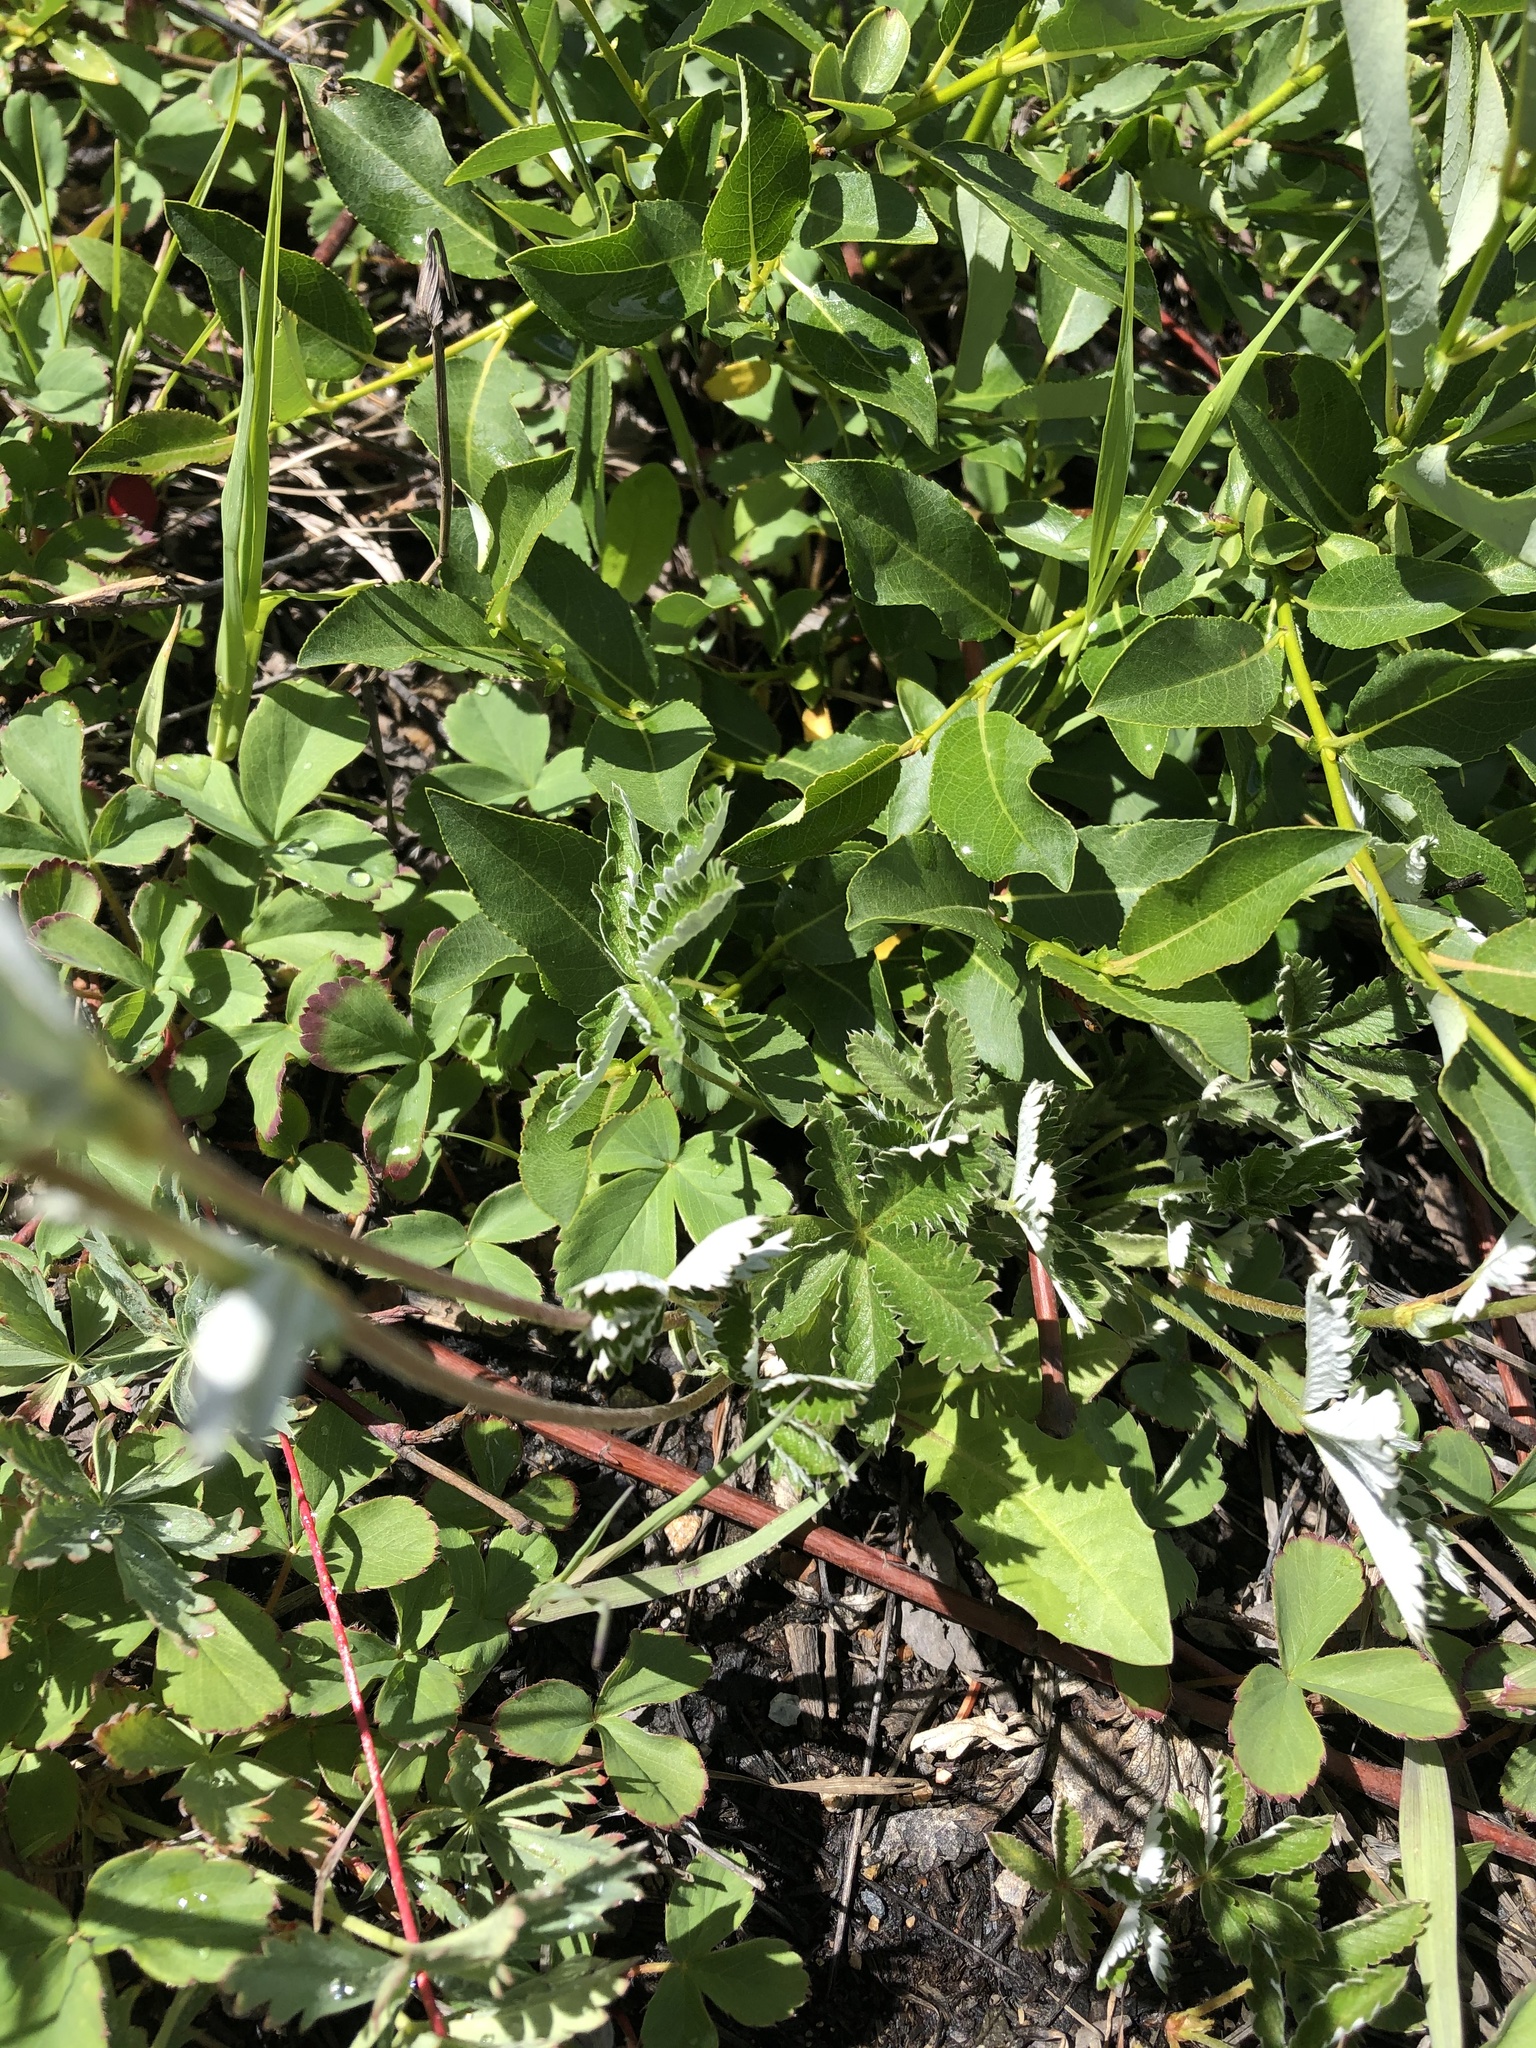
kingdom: Plantae
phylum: Tracheophyta
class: Magnoliopsida
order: Rosales
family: Rosaceae
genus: Potentilla
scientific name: Potentilla pulcherrima
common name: Beautiful cinquefoil
